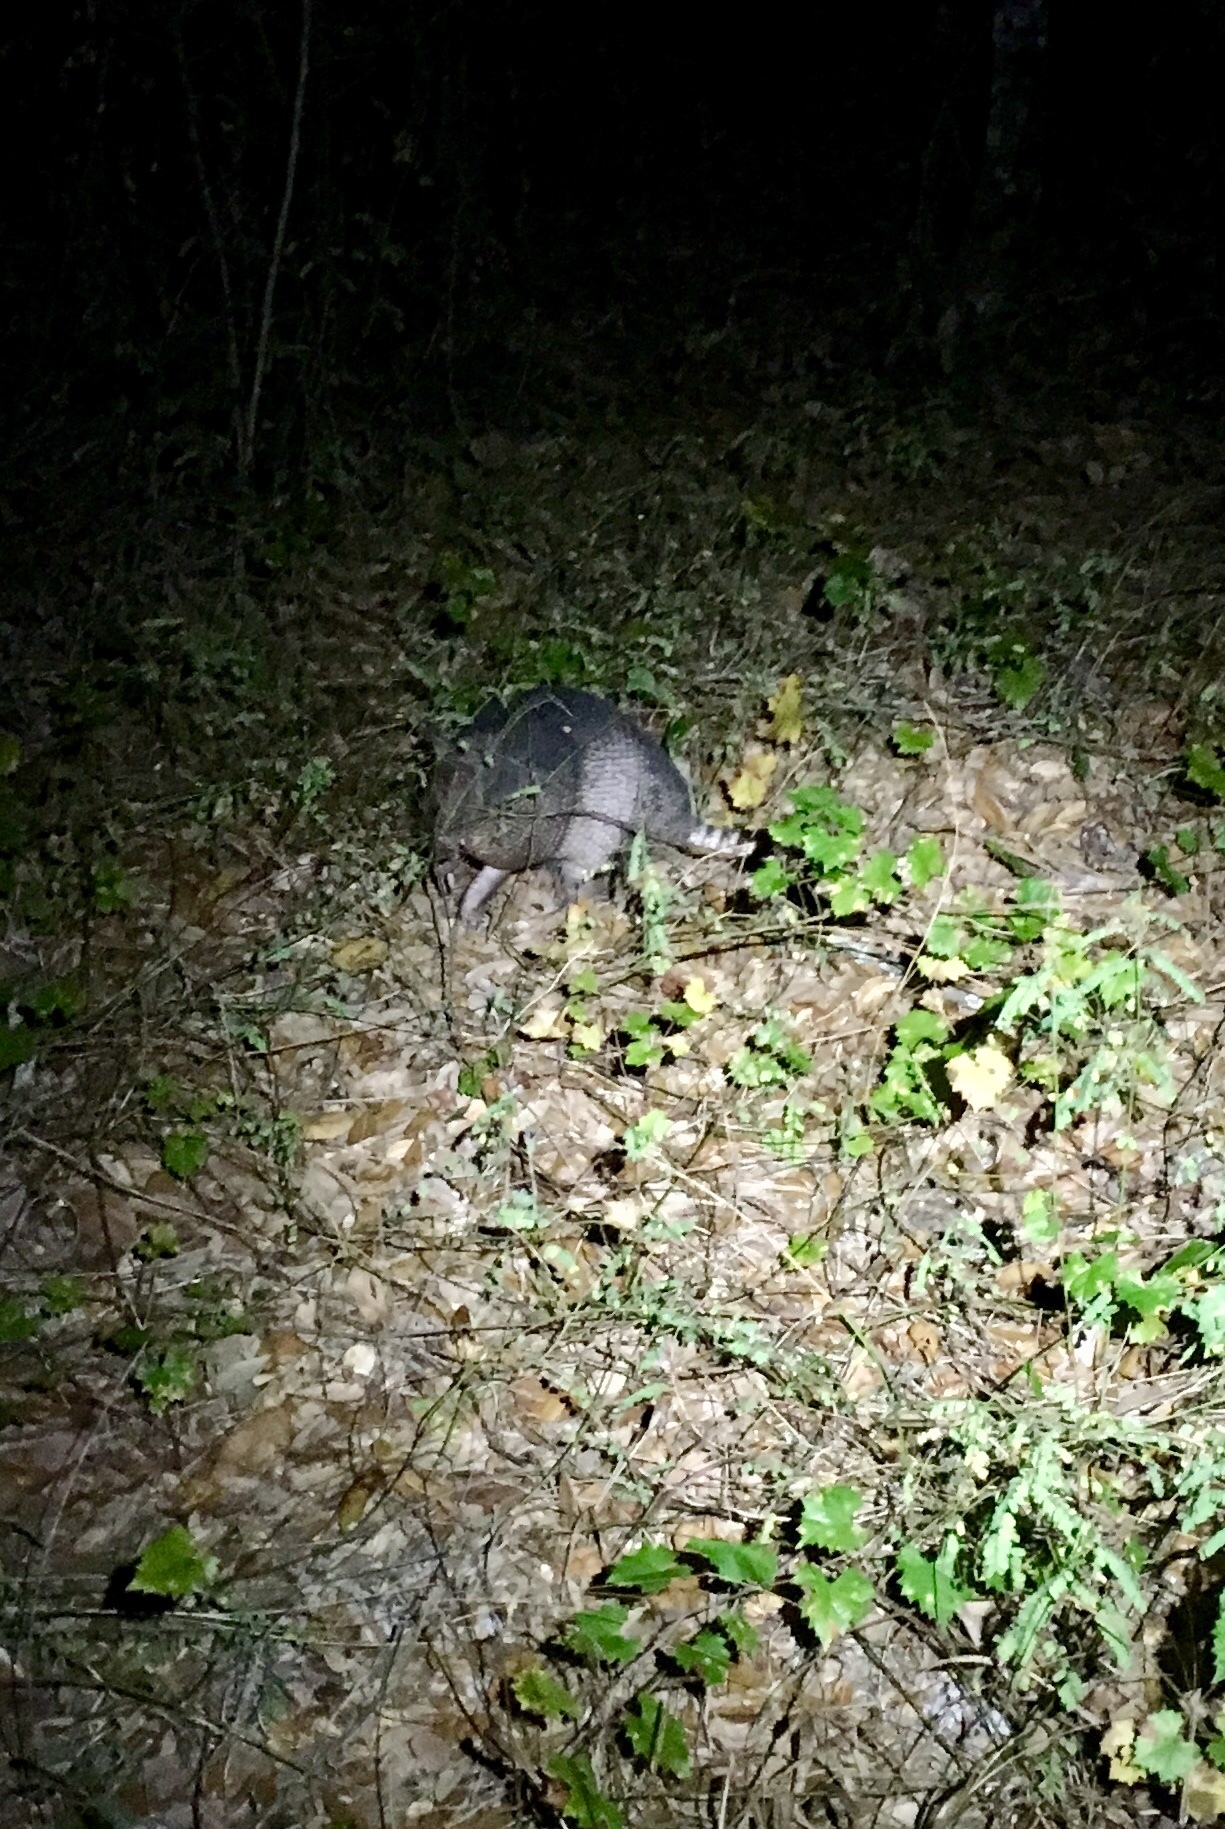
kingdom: Animalia
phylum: Chordata
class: Mammalia
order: Cingulata
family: Dasypodidae
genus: Dasypus
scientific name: Dasypus novemcinctus
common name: Nine-banded armadillo
